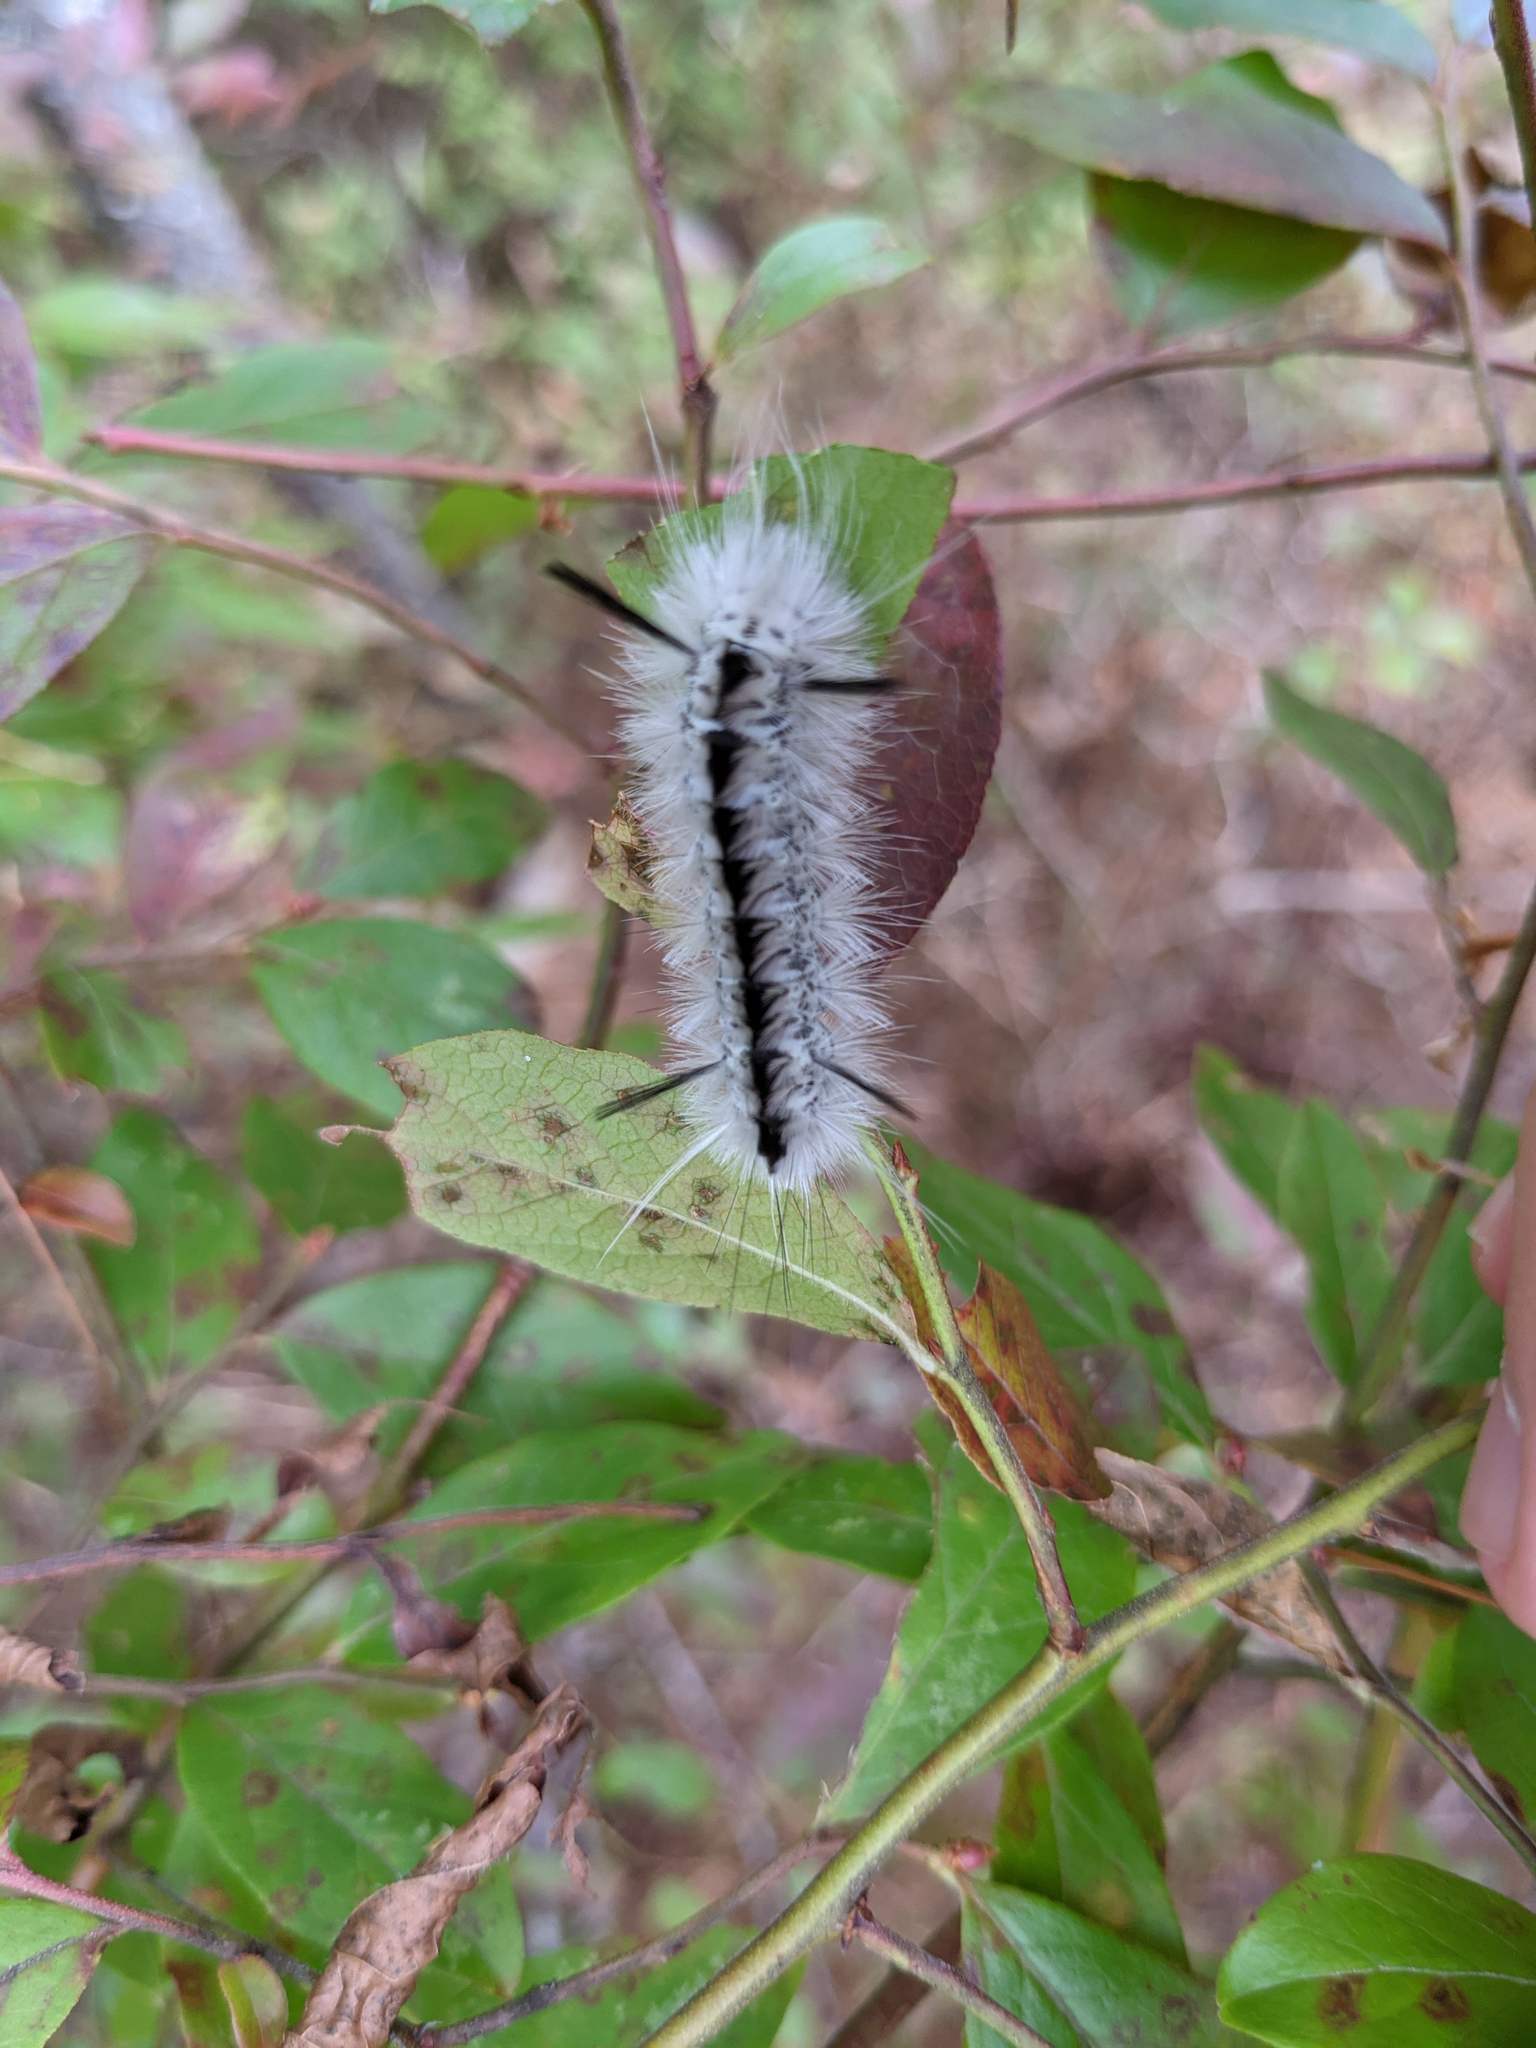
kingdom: Animalia
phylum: Arthropoda
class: Insecta
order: Lepidoptera
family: Erebidae
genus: Lophocampa
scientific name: Lophocampa caryae
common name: Hickory tussock moth
